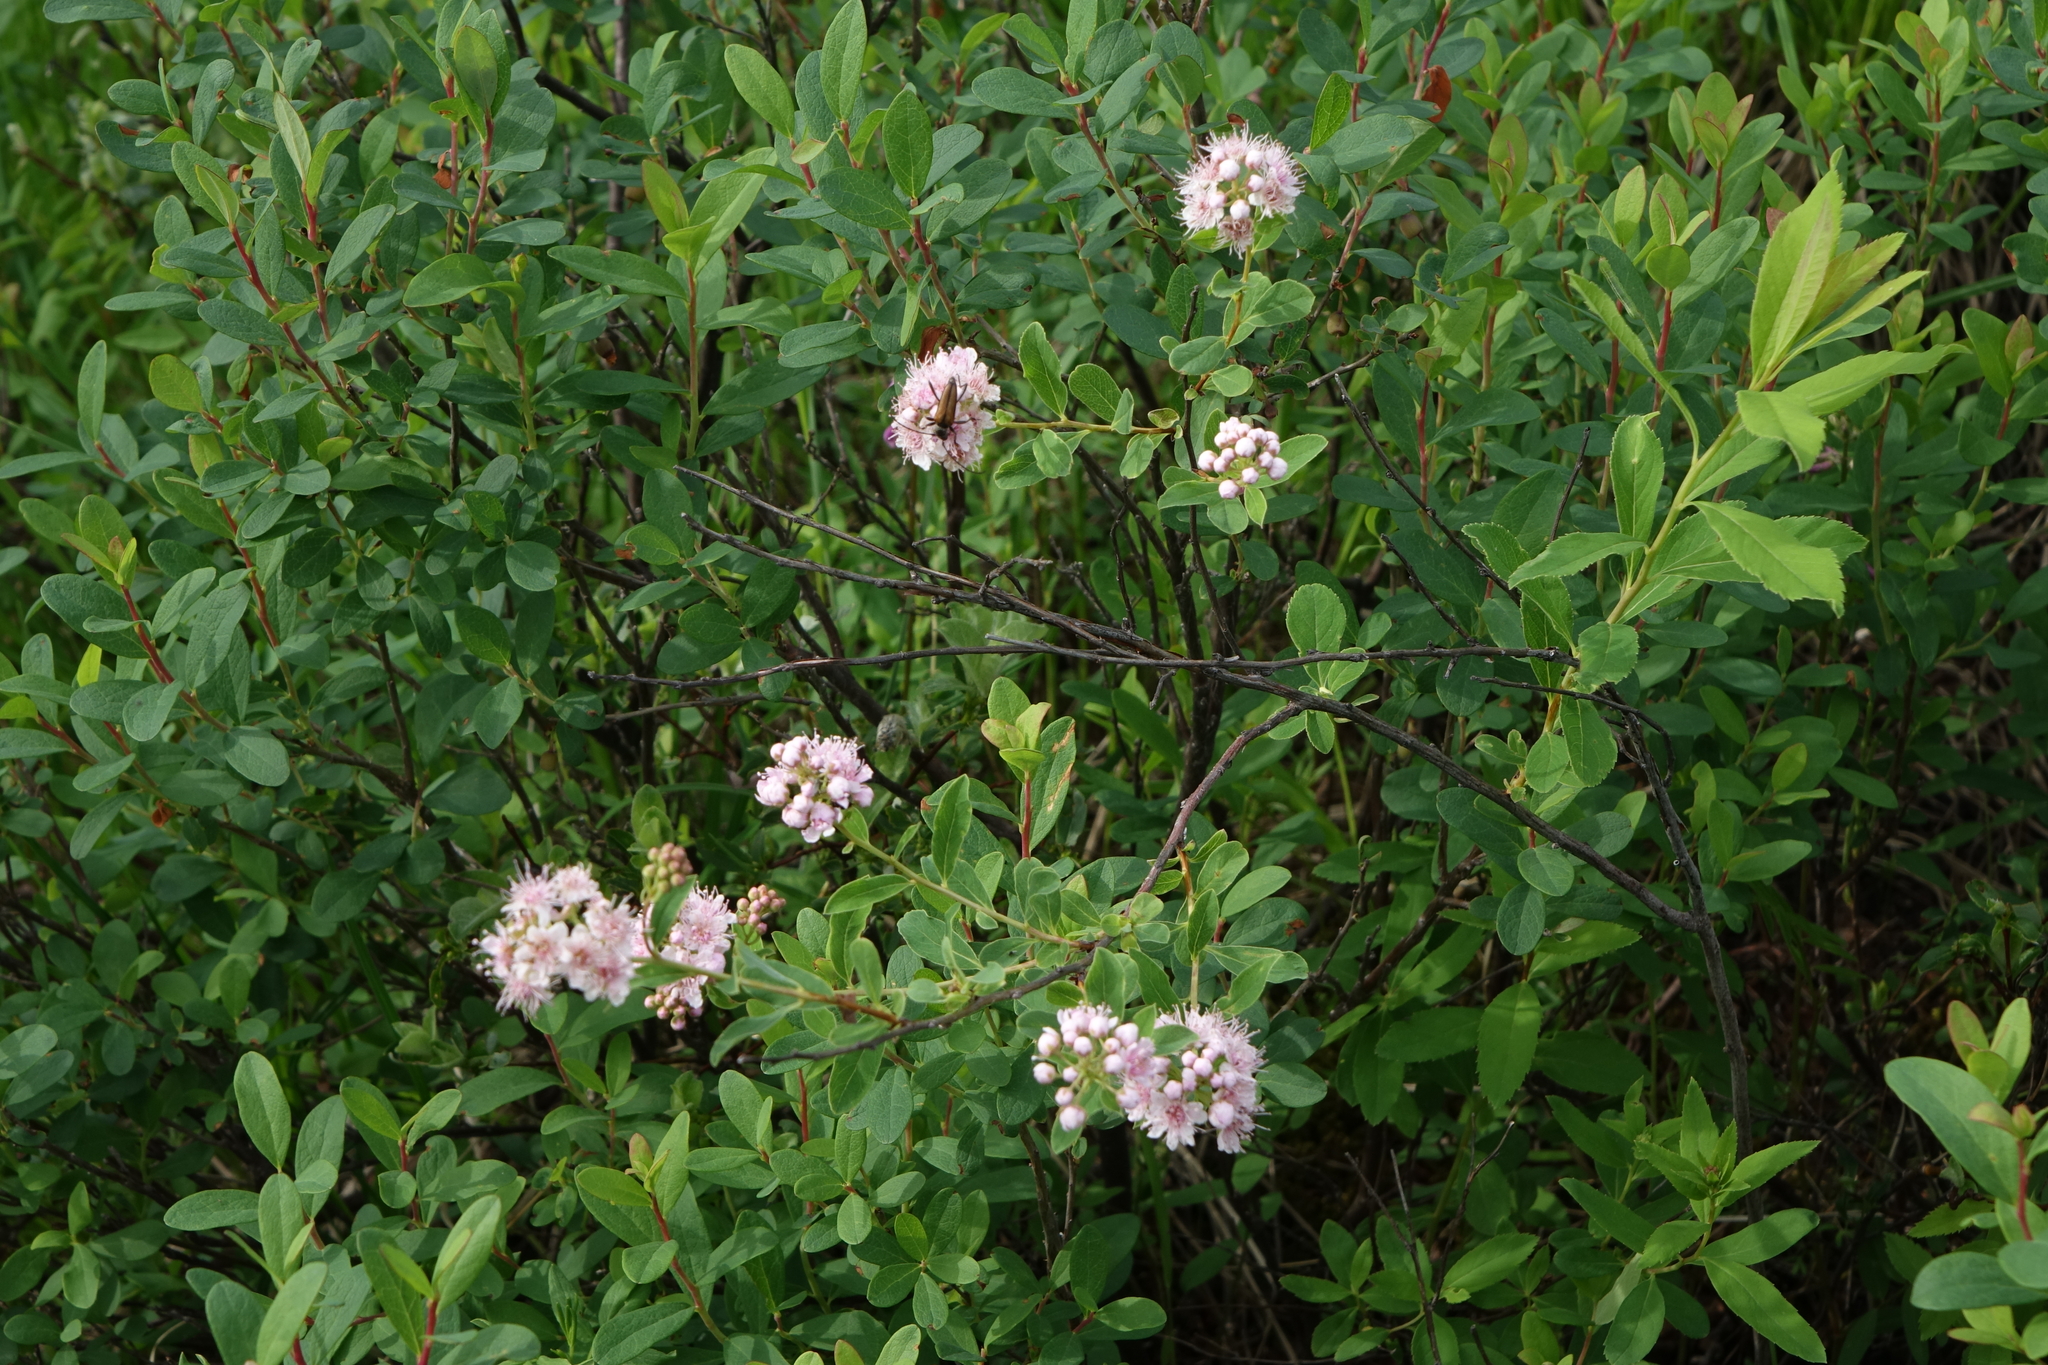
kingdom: Plantae
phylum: Tracheophyta
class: Magnoliopsida
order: Rosales
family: Rosaceae
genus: Spiraea
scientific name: Spiraea salicifolia
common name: Bridewort
